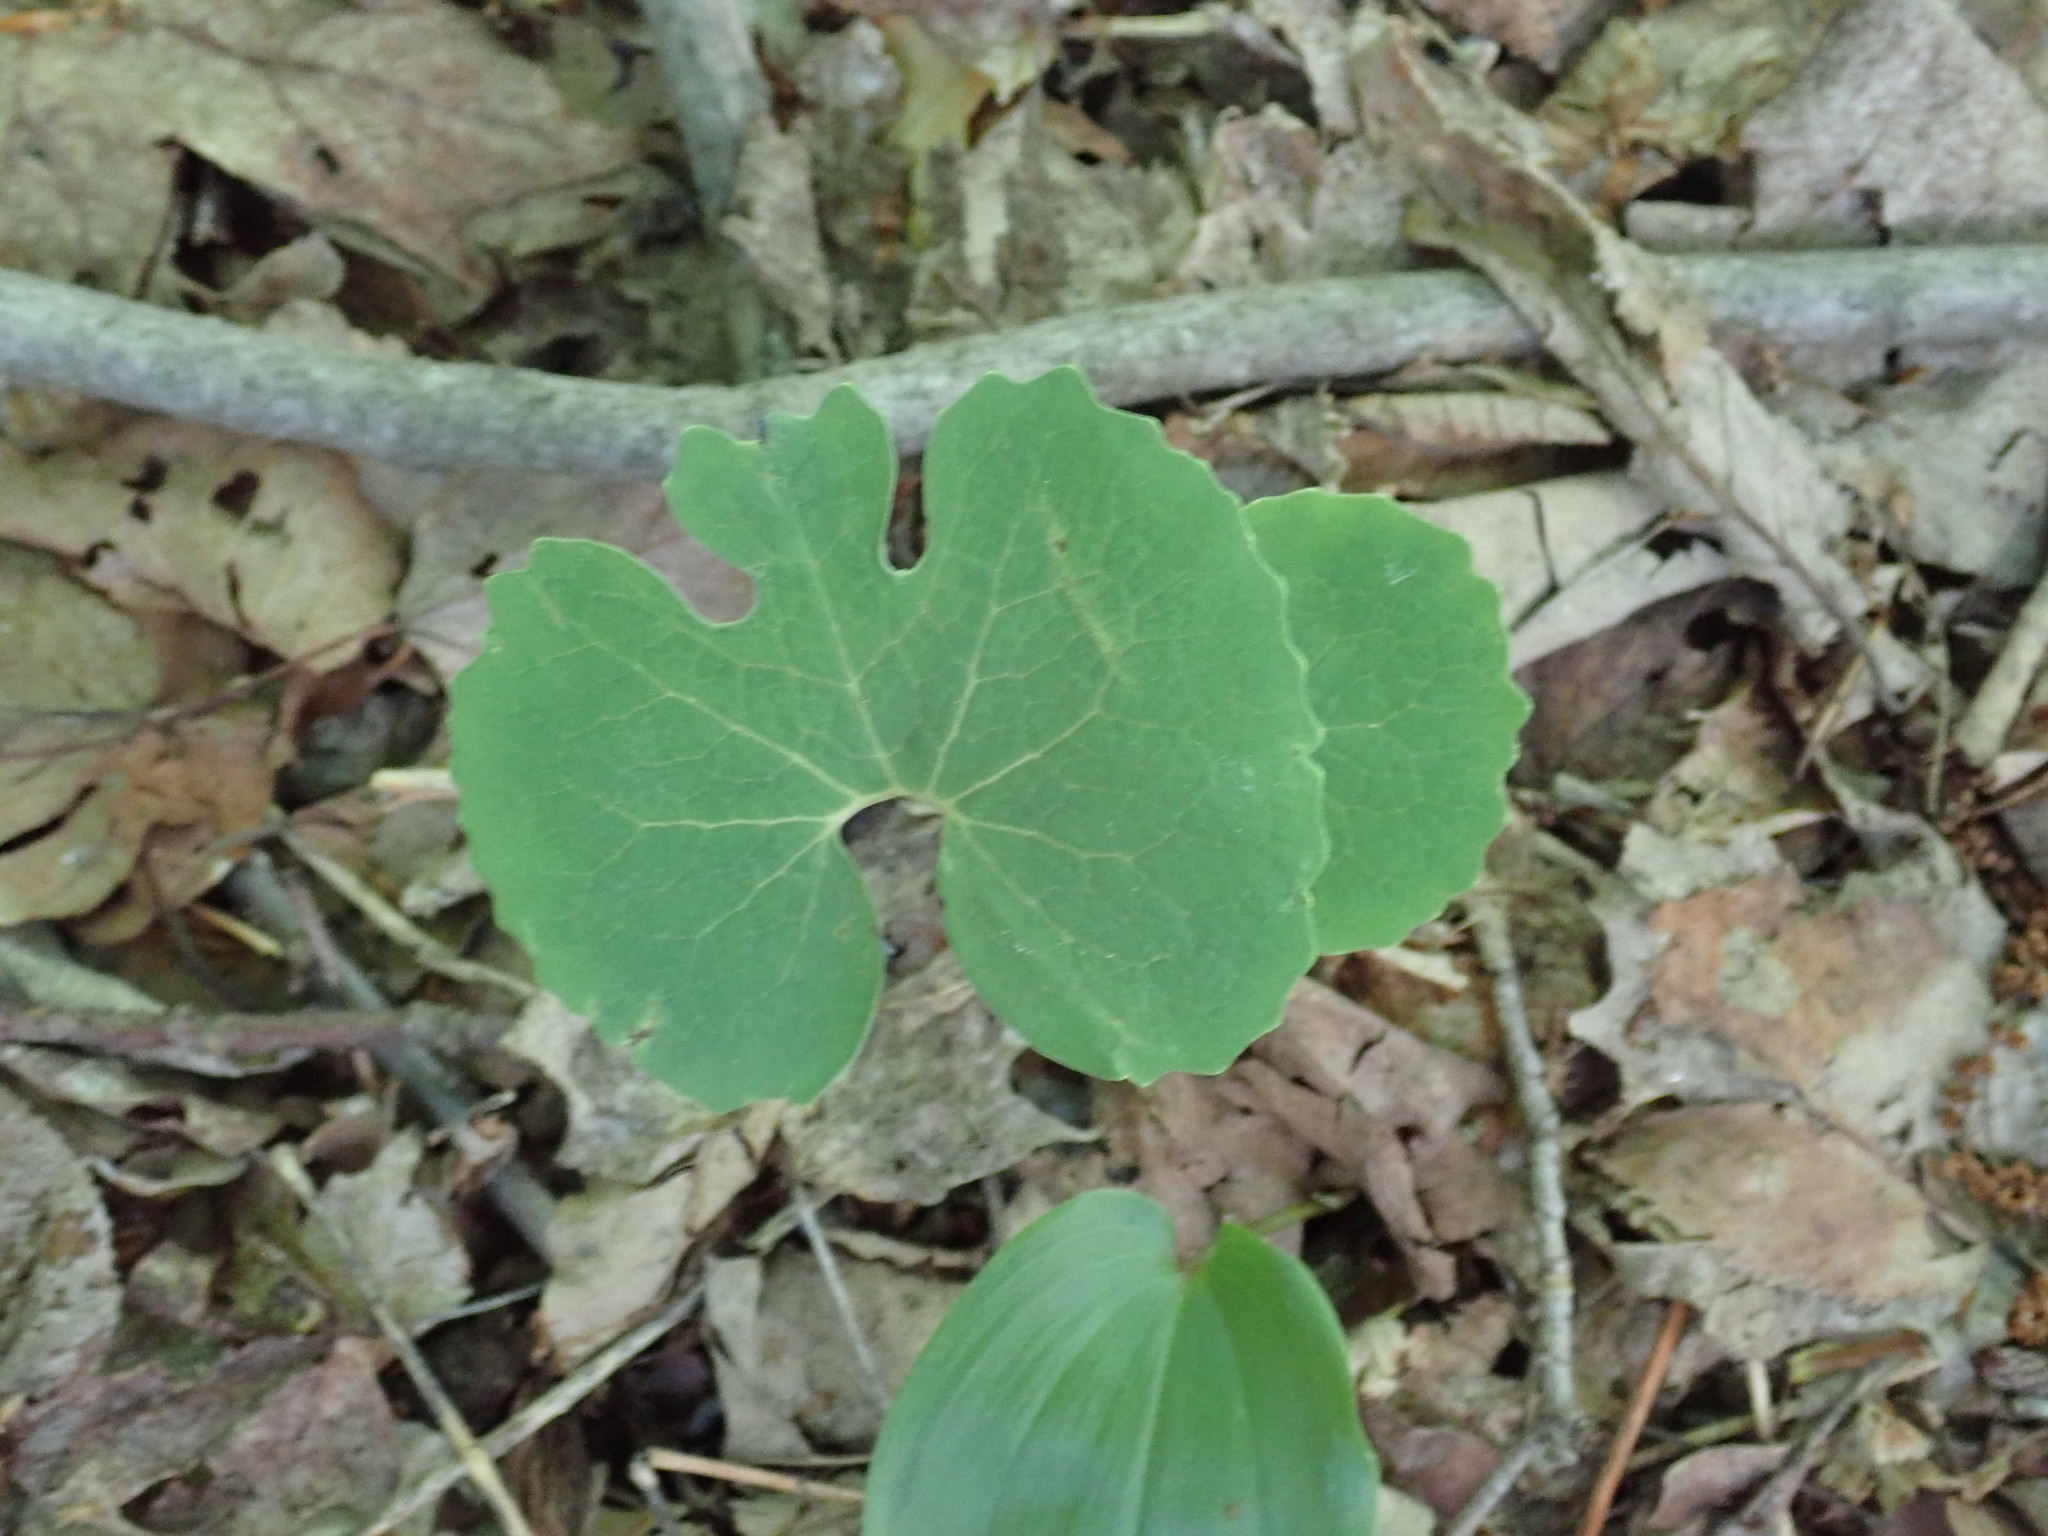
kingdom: Plantae
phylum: Tracheophyta
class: Magnoliopsida
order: Ranunculales
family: Papaveraceae
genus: Sanguinaria
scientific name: Sanguinaria canadensis
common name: Bloodroot
